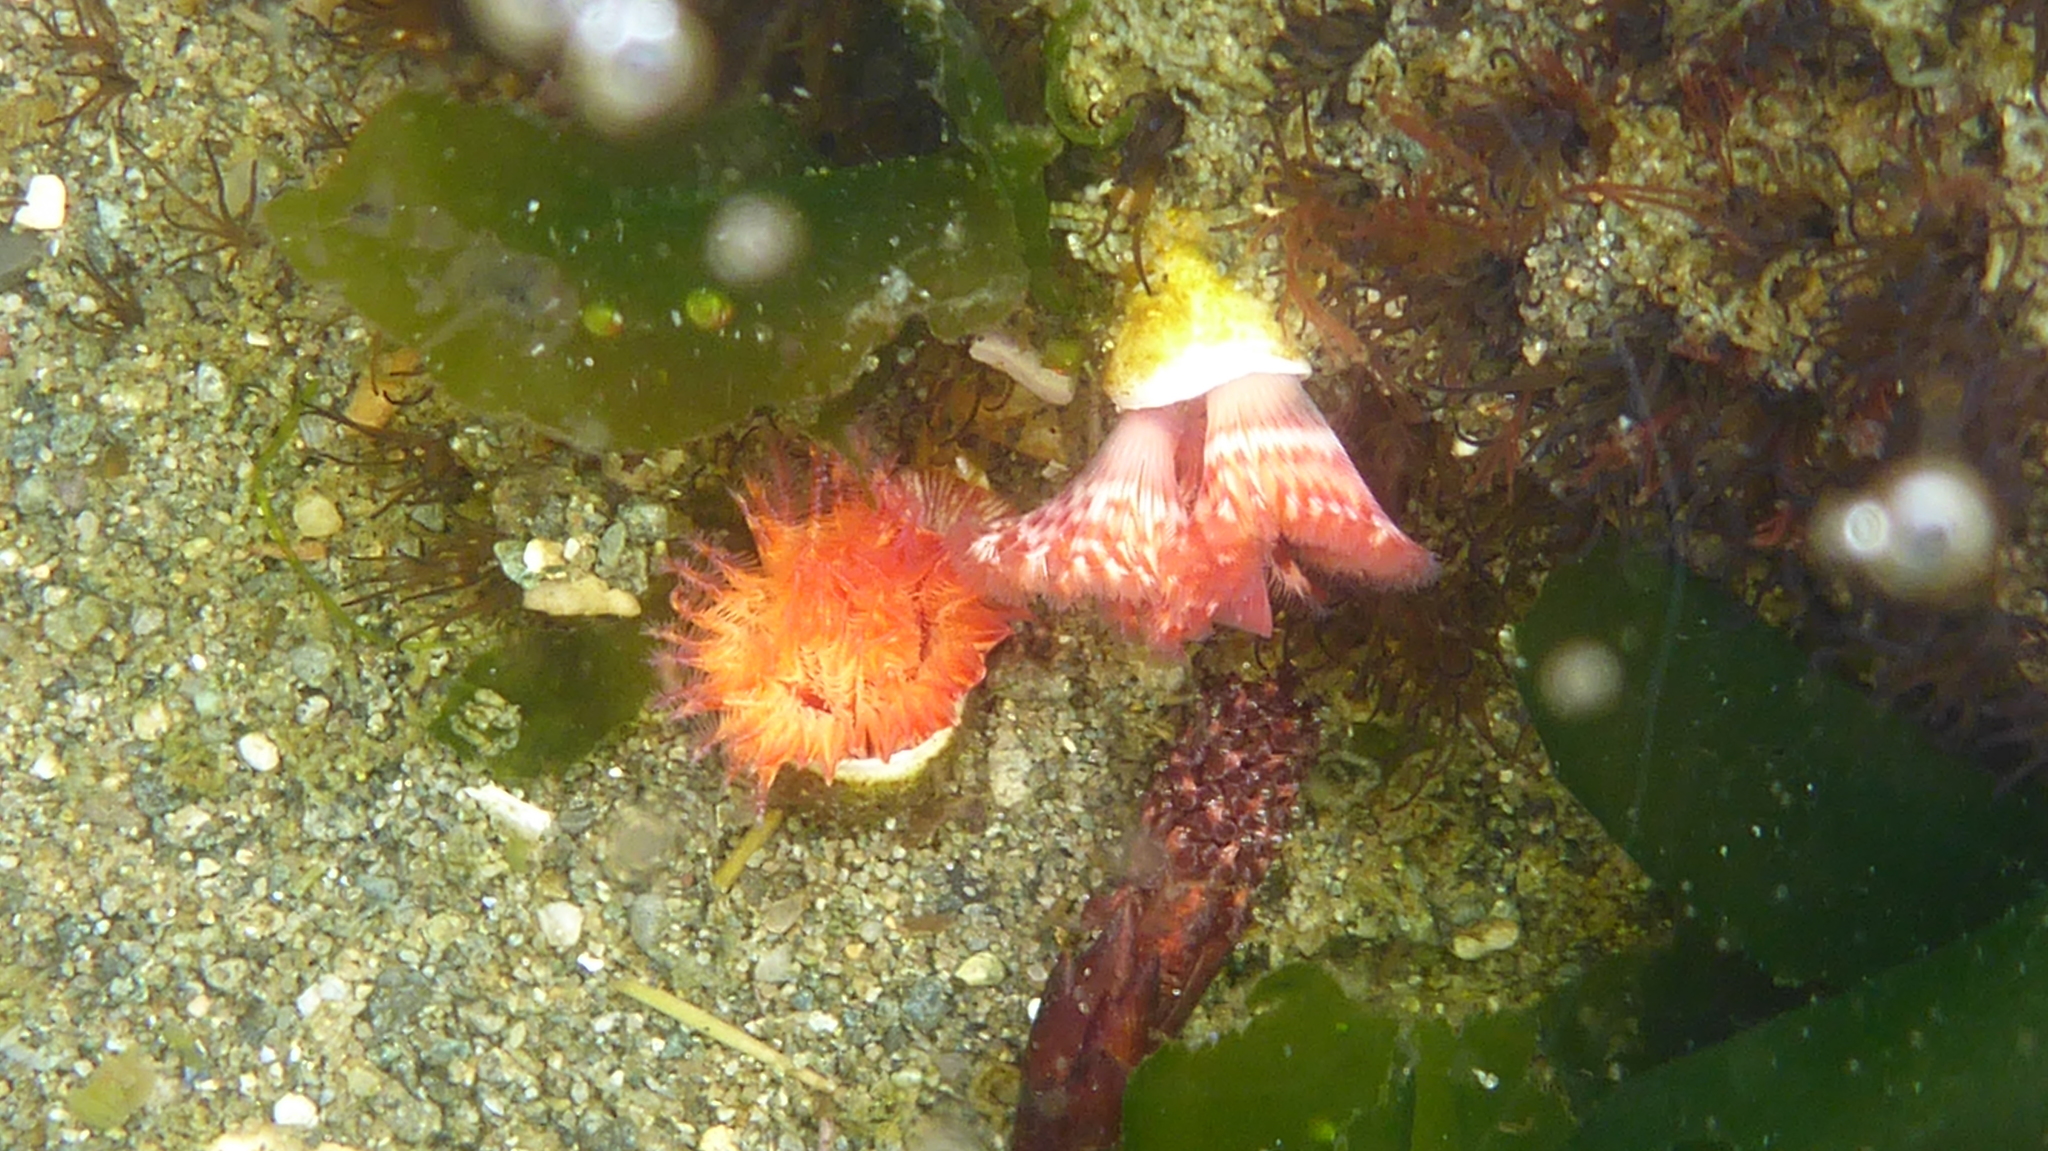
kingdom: Animalia
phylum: Annelida
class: Polychaeta
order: Sabellida
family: Serpulidae
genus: Serpula
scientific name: Serpula columbiana
